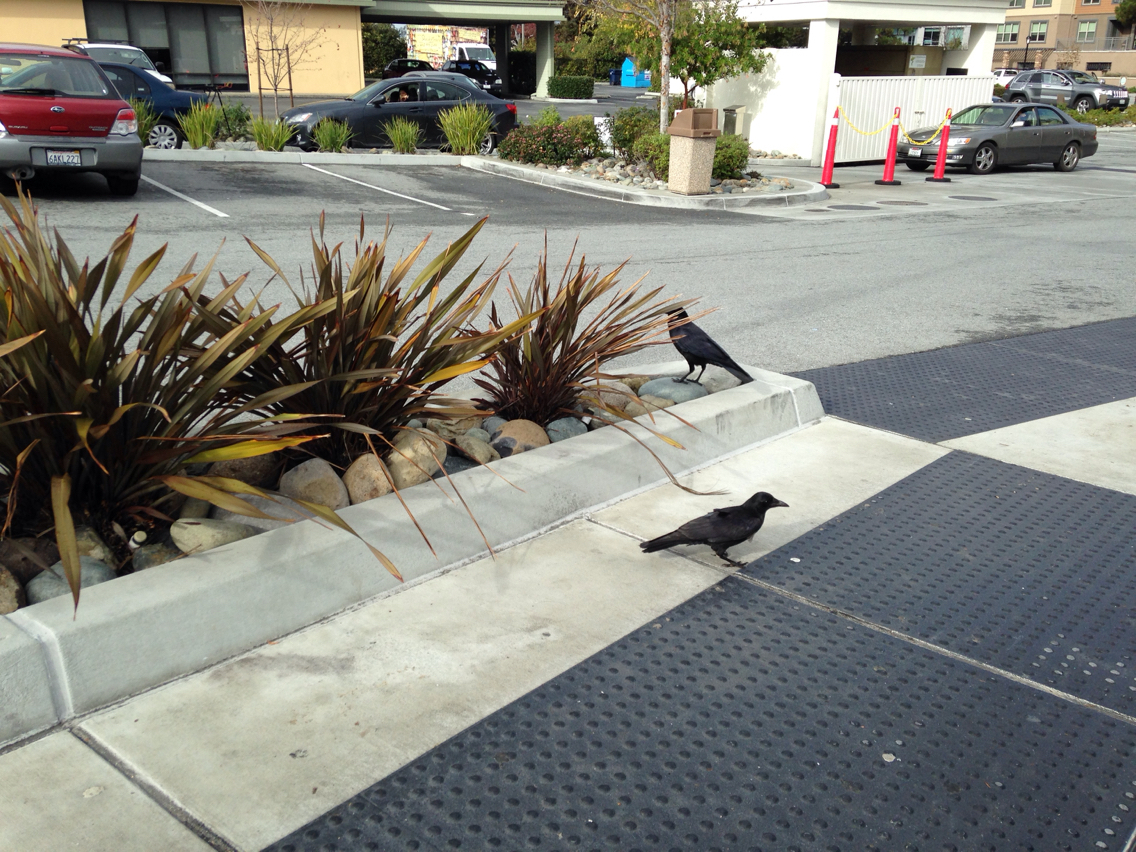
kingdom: Animalia
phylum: Chordata
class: Aves
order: Passeriformes
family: Corvidae
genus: Corvus
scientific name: Corvus brachyrhynchos
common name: American crow
